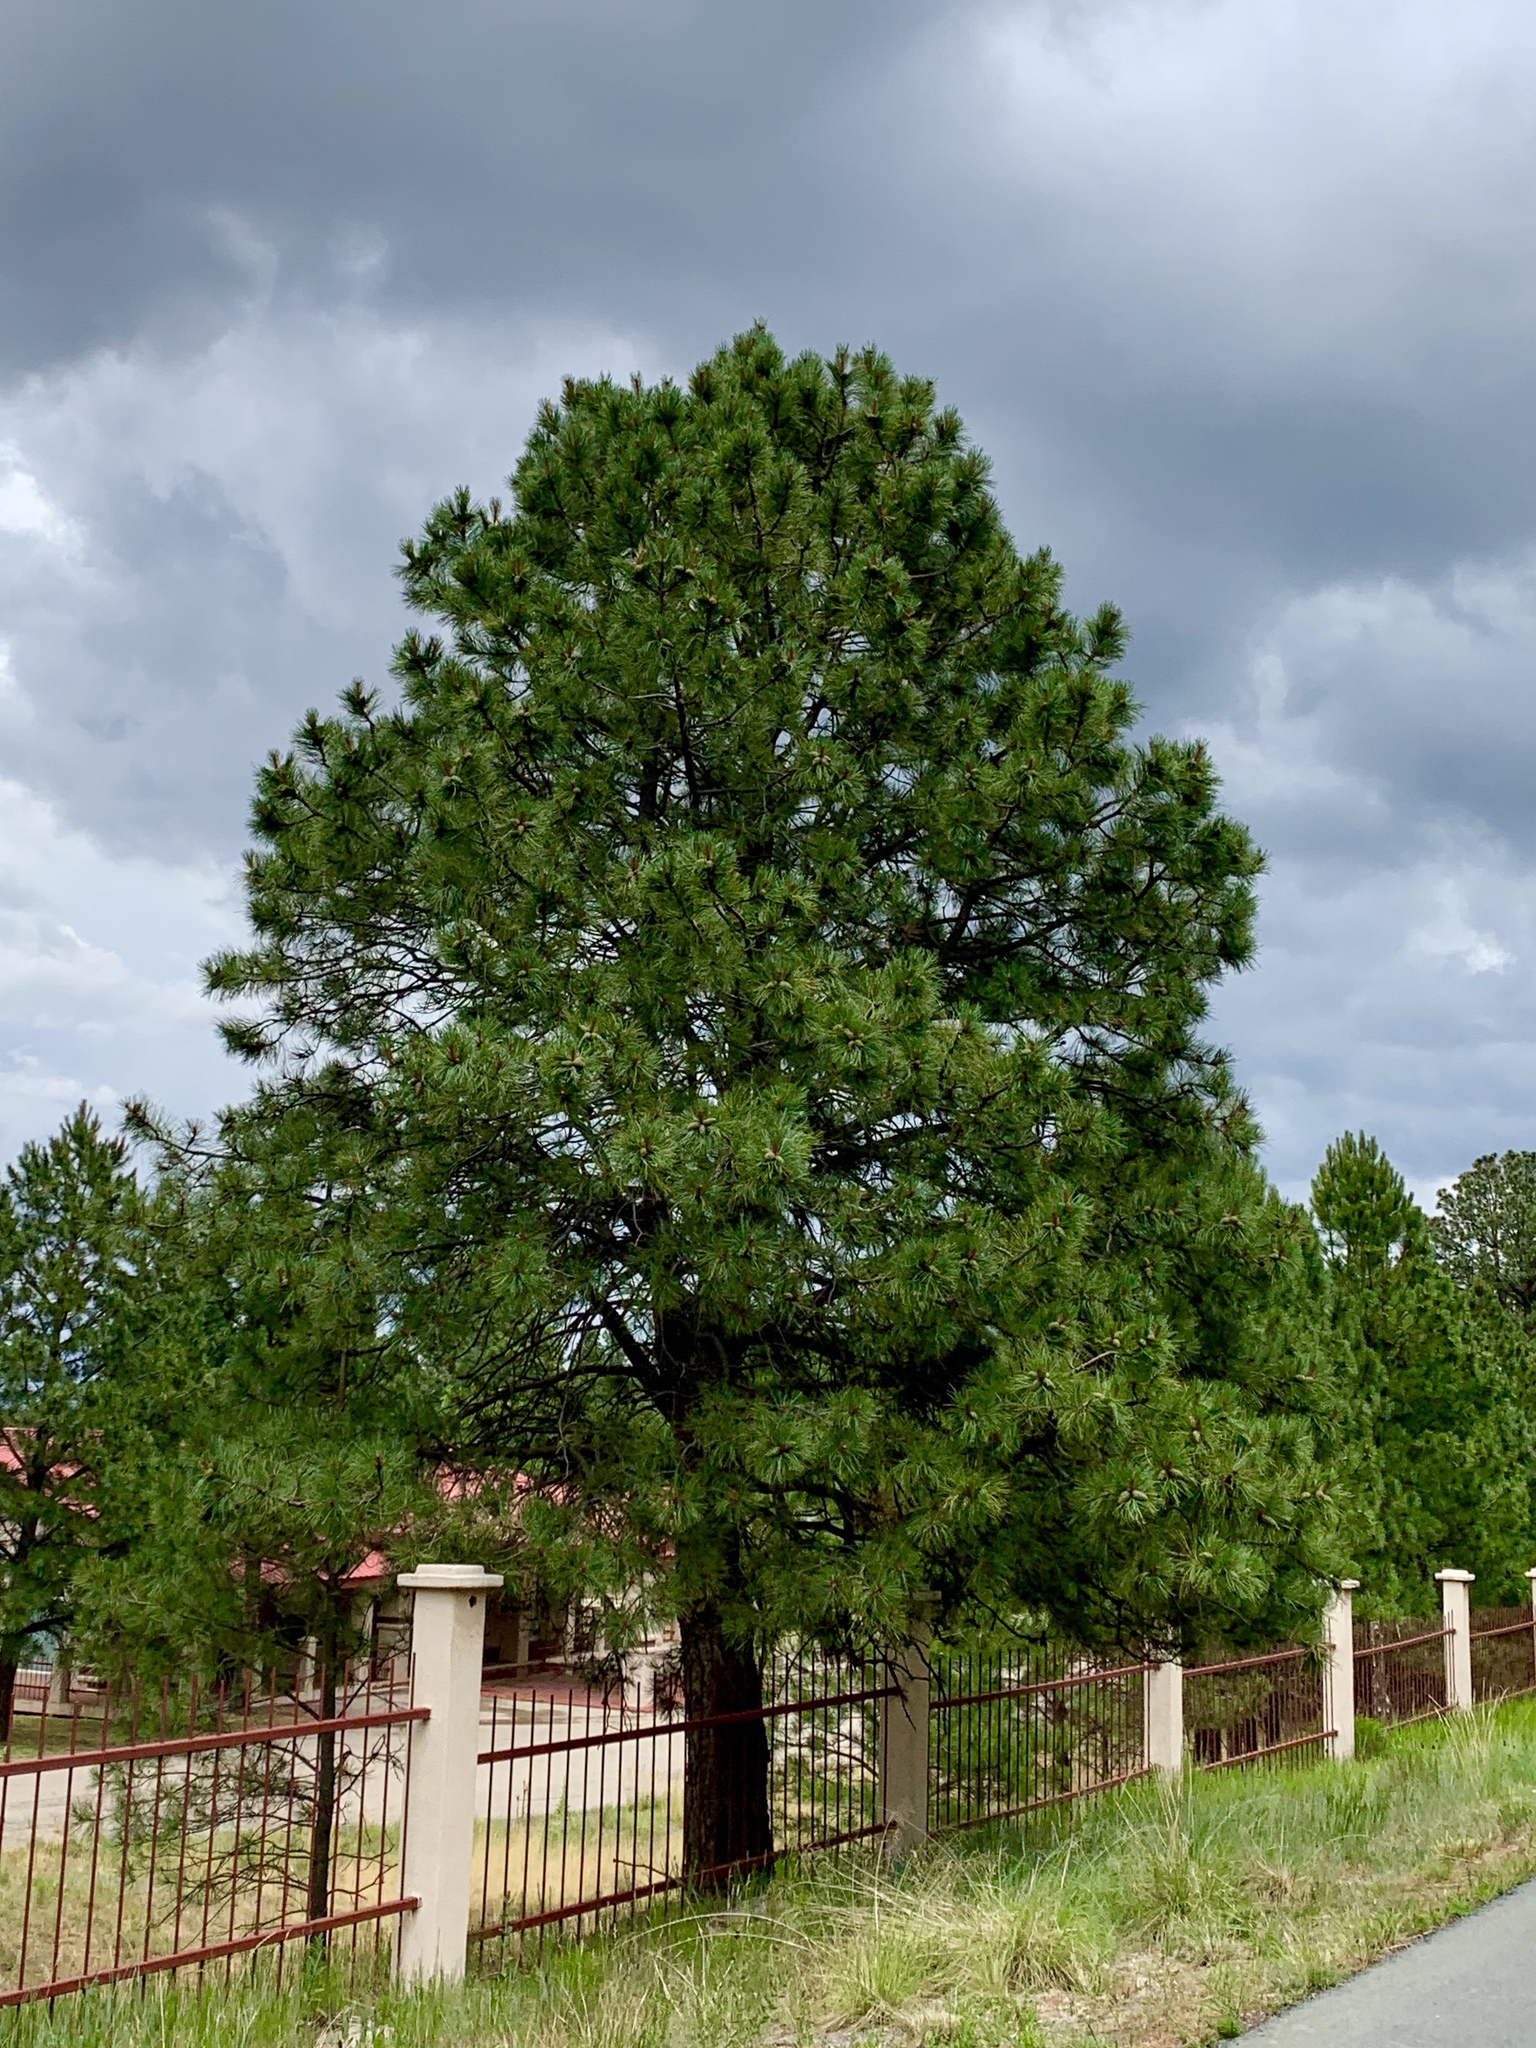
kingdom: Plantae
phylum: Tracheophyta
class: Pinopsida
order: Pinales
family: Pinaceae
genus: Pinus
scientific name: Pinus ponderosa
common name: Western yellow-pine
